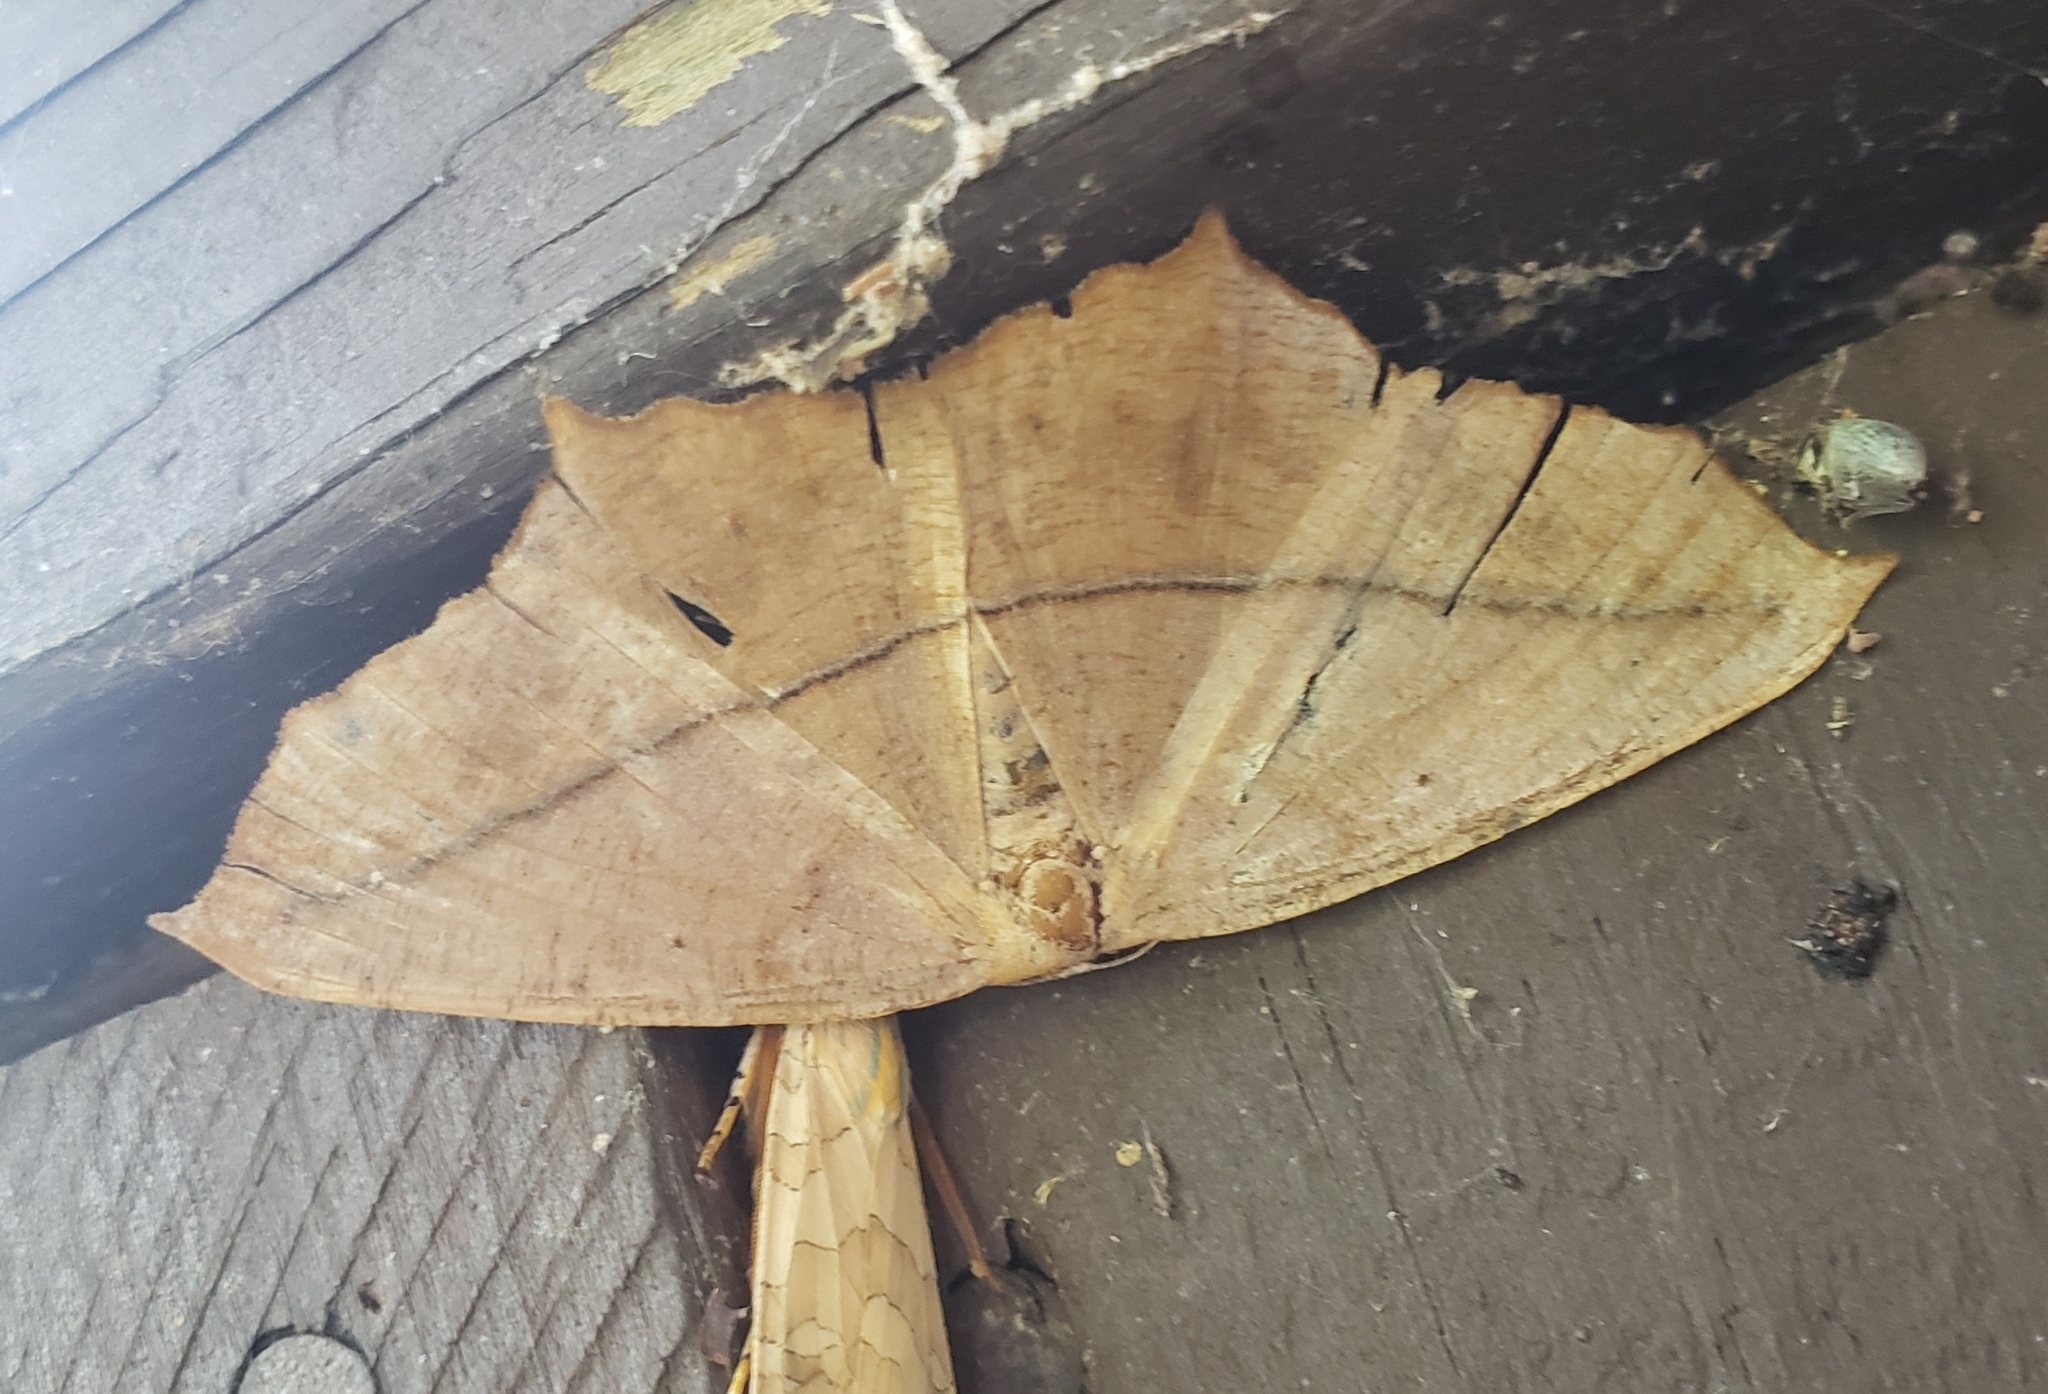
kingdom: Animalia
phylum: Arthropoda
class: Insecta
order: Lepidoptera
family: Geometridae
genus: Prochoerodes
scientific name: Prochoerodes lineola
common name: Large maple spanworm
